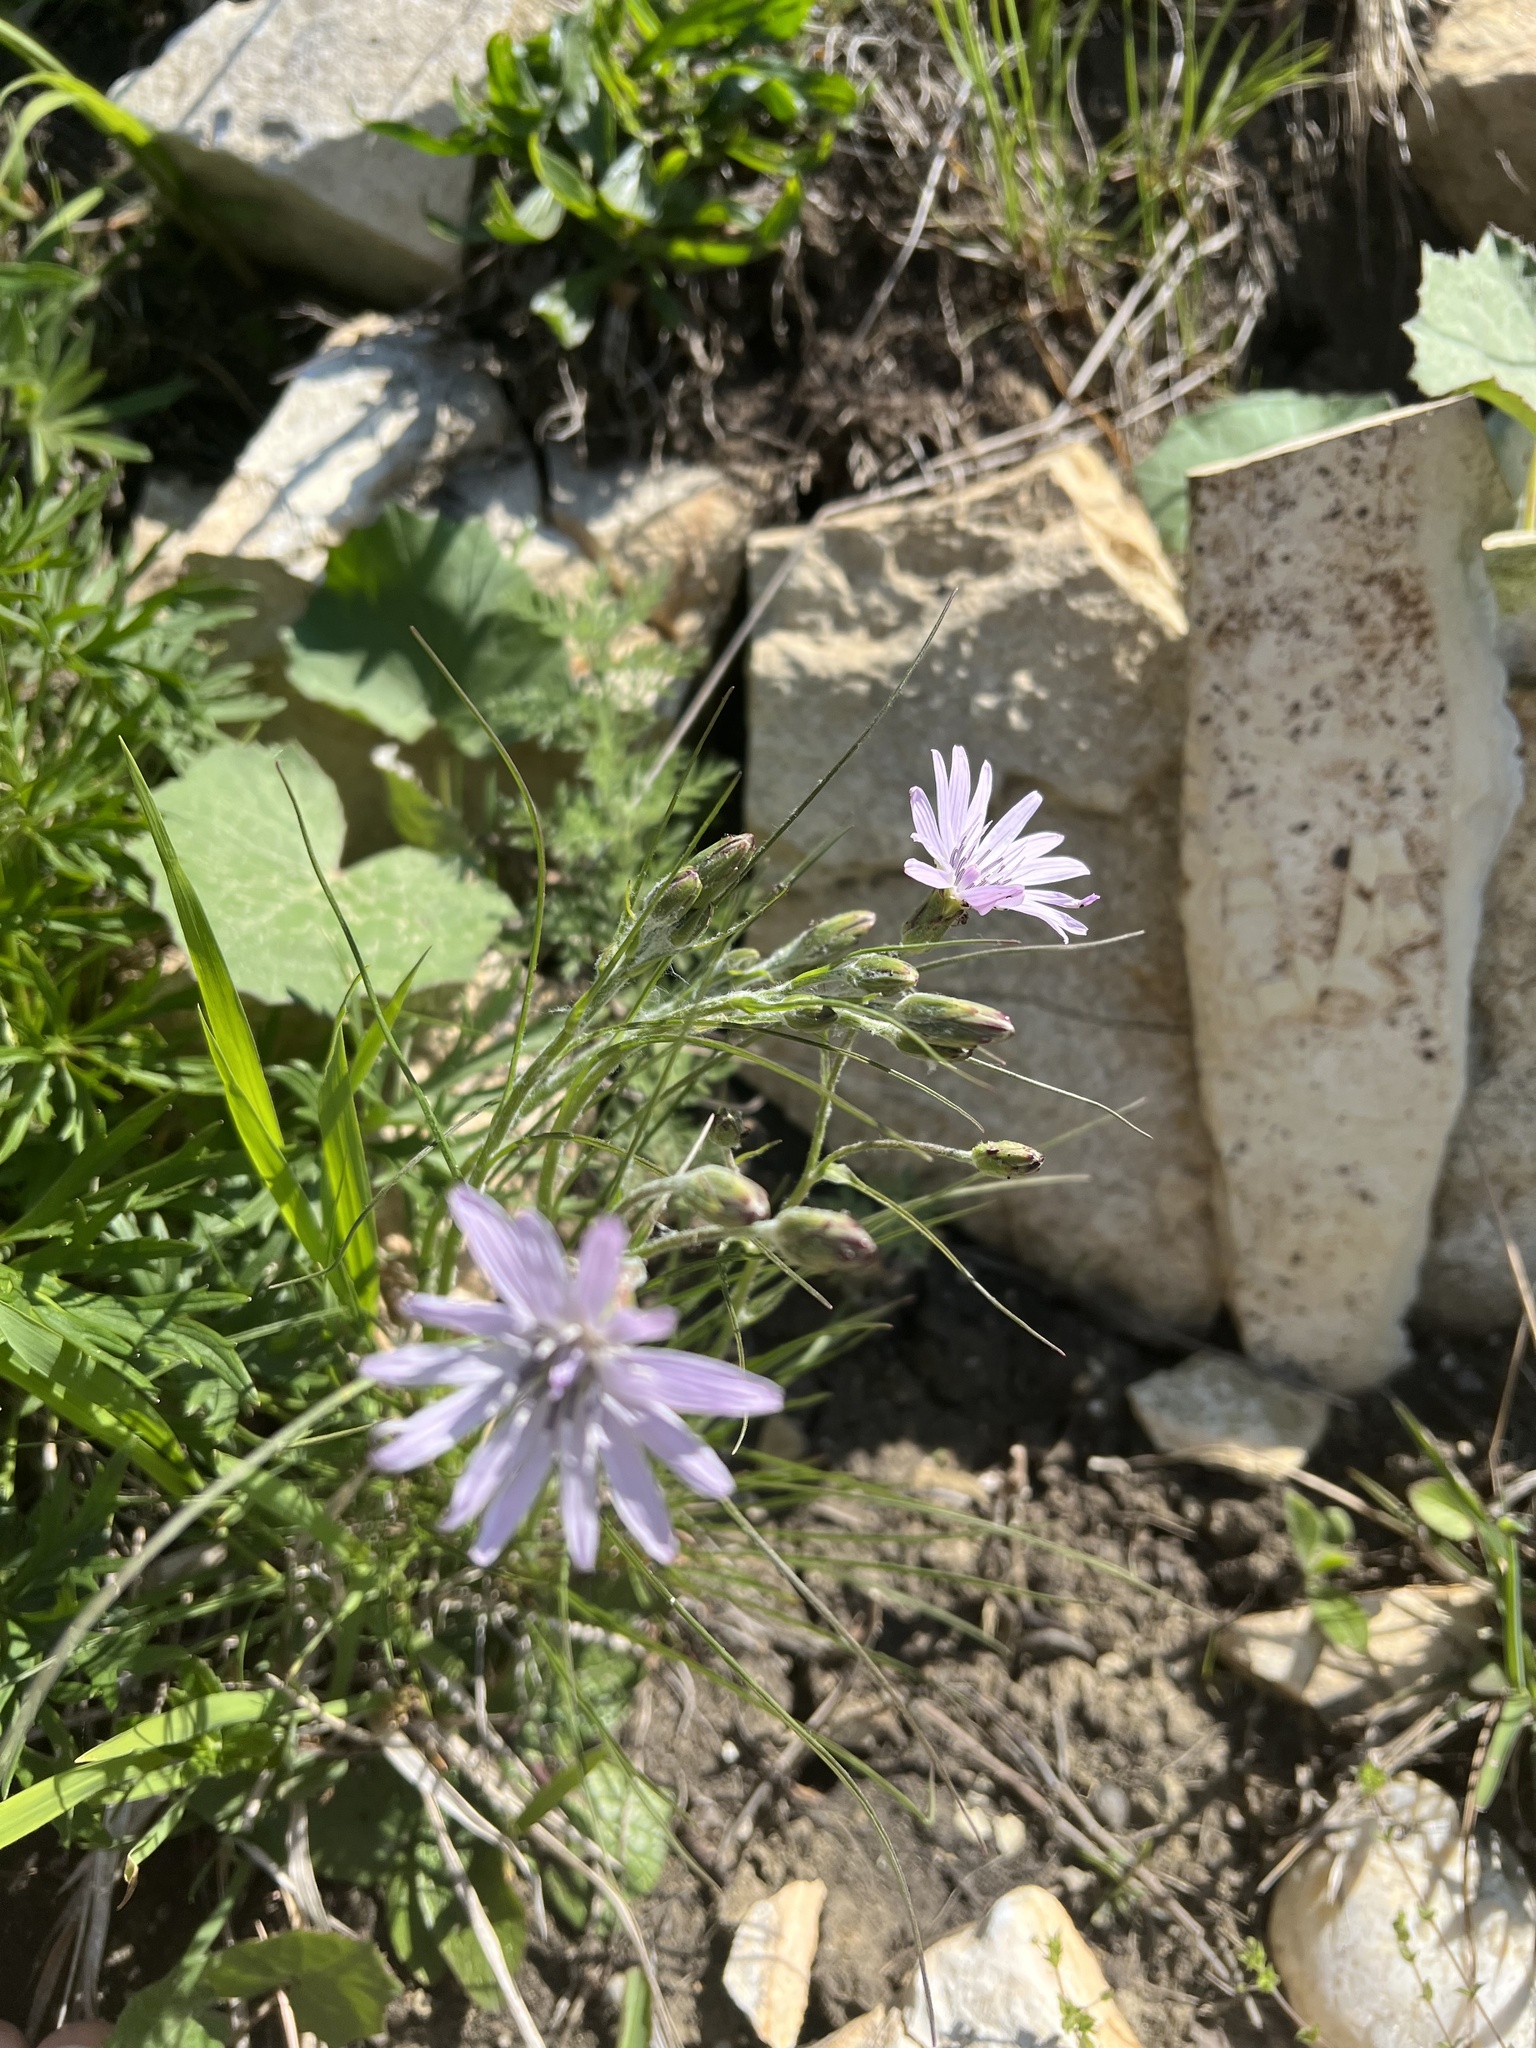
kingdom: Plantae
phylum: Tracheophyta
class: Magnoliopsida
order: Asterales
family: Asteraceae
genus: Scorzonera
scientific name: Scorzonera purpurea
